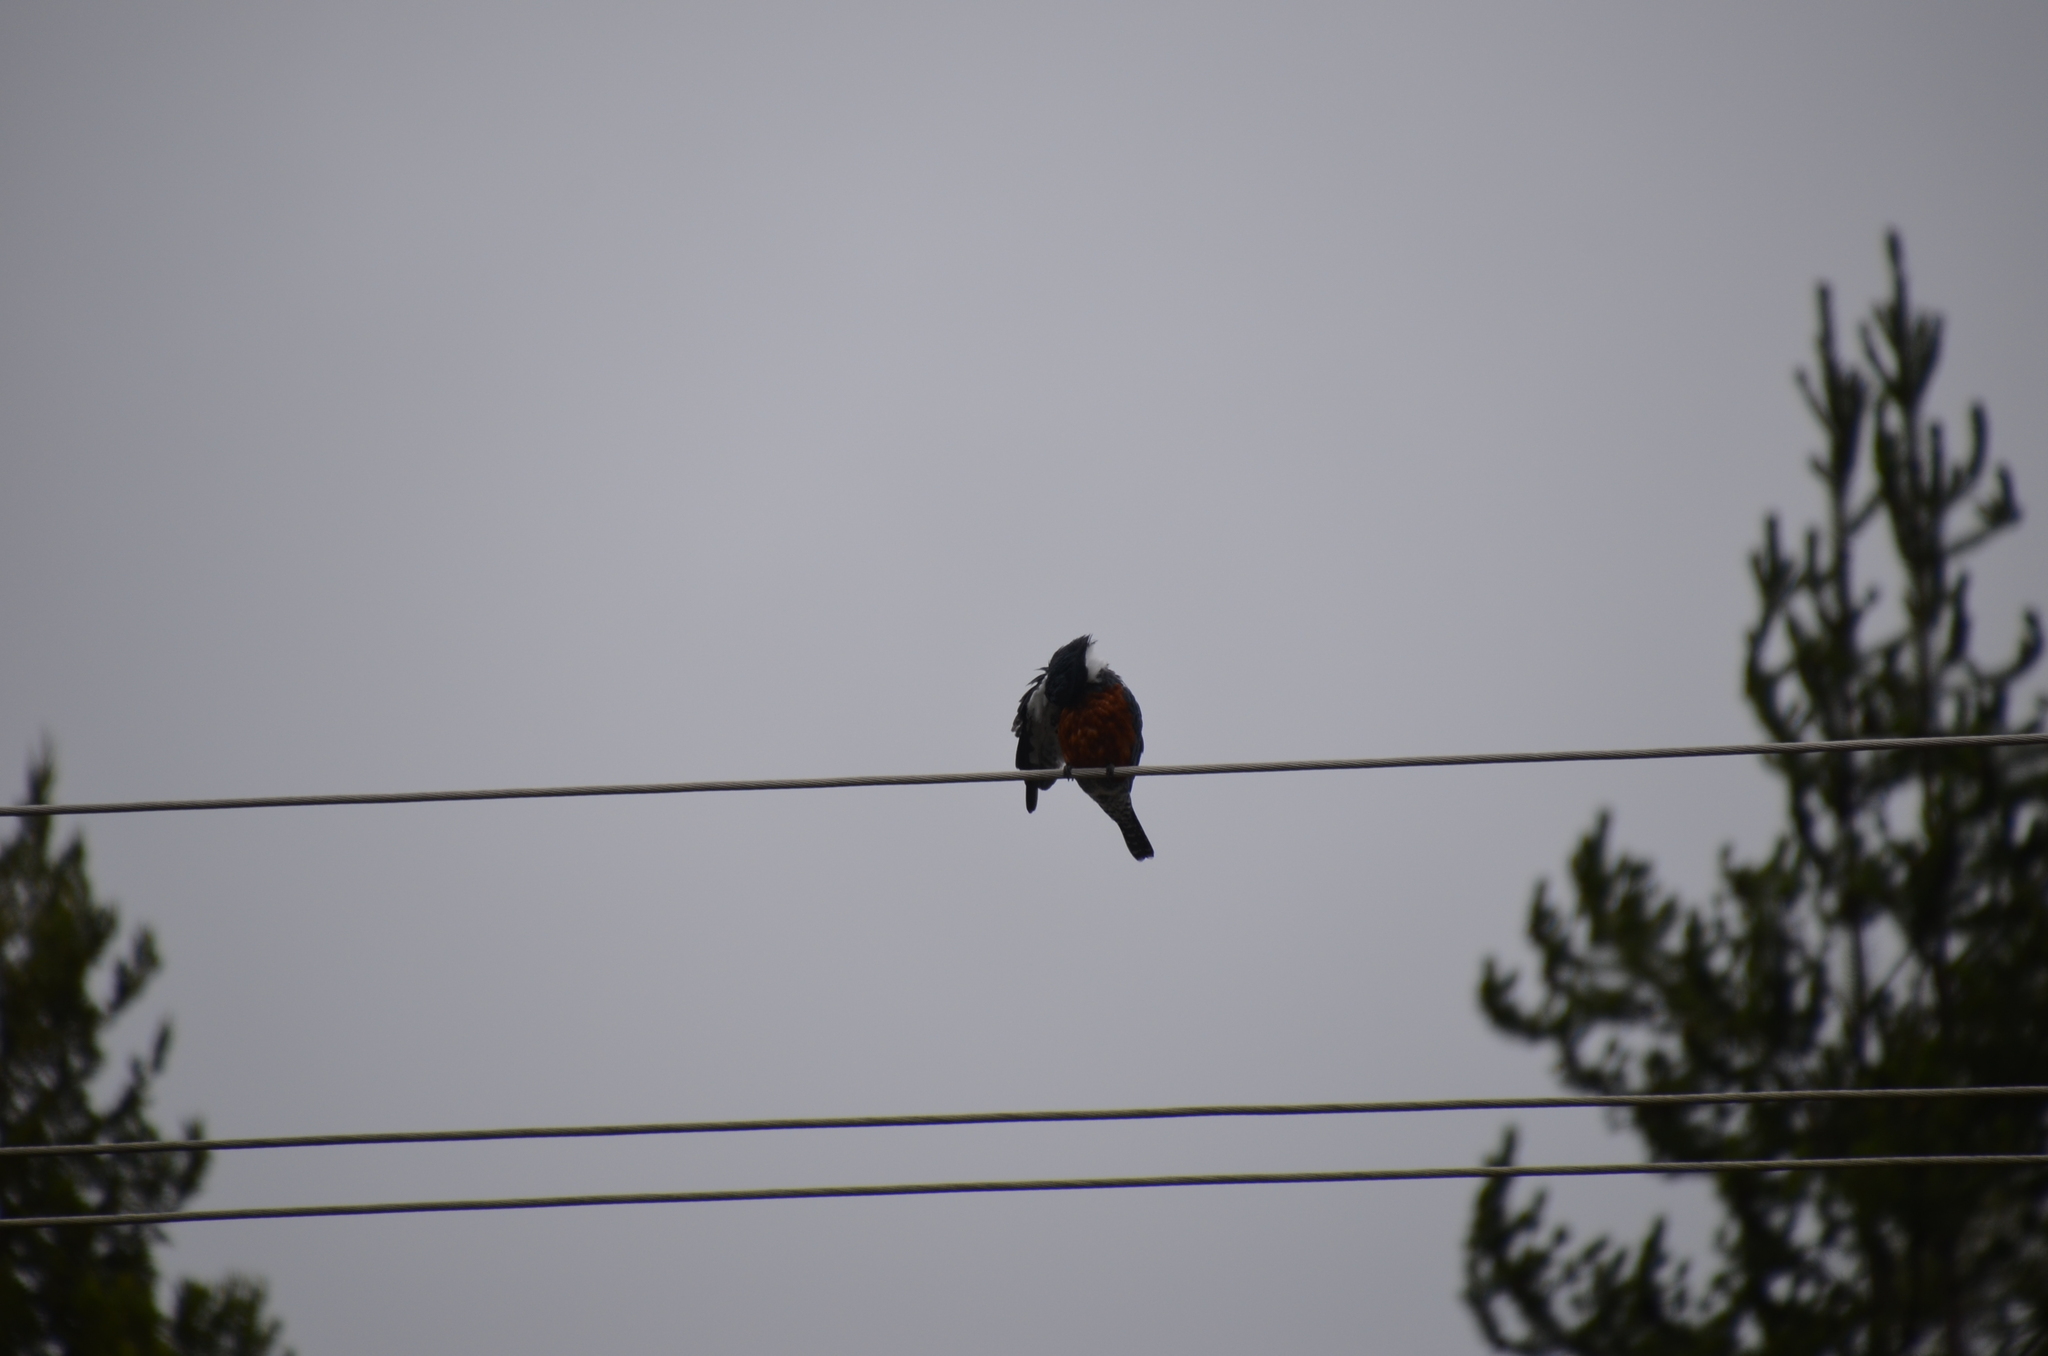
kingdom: Animalia
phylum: Chordata
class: Aves
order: Coraciiformes
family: Alcedinidae
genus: Megaceryle
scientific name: Megaceryle torquata
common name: Ringed kingfisher
